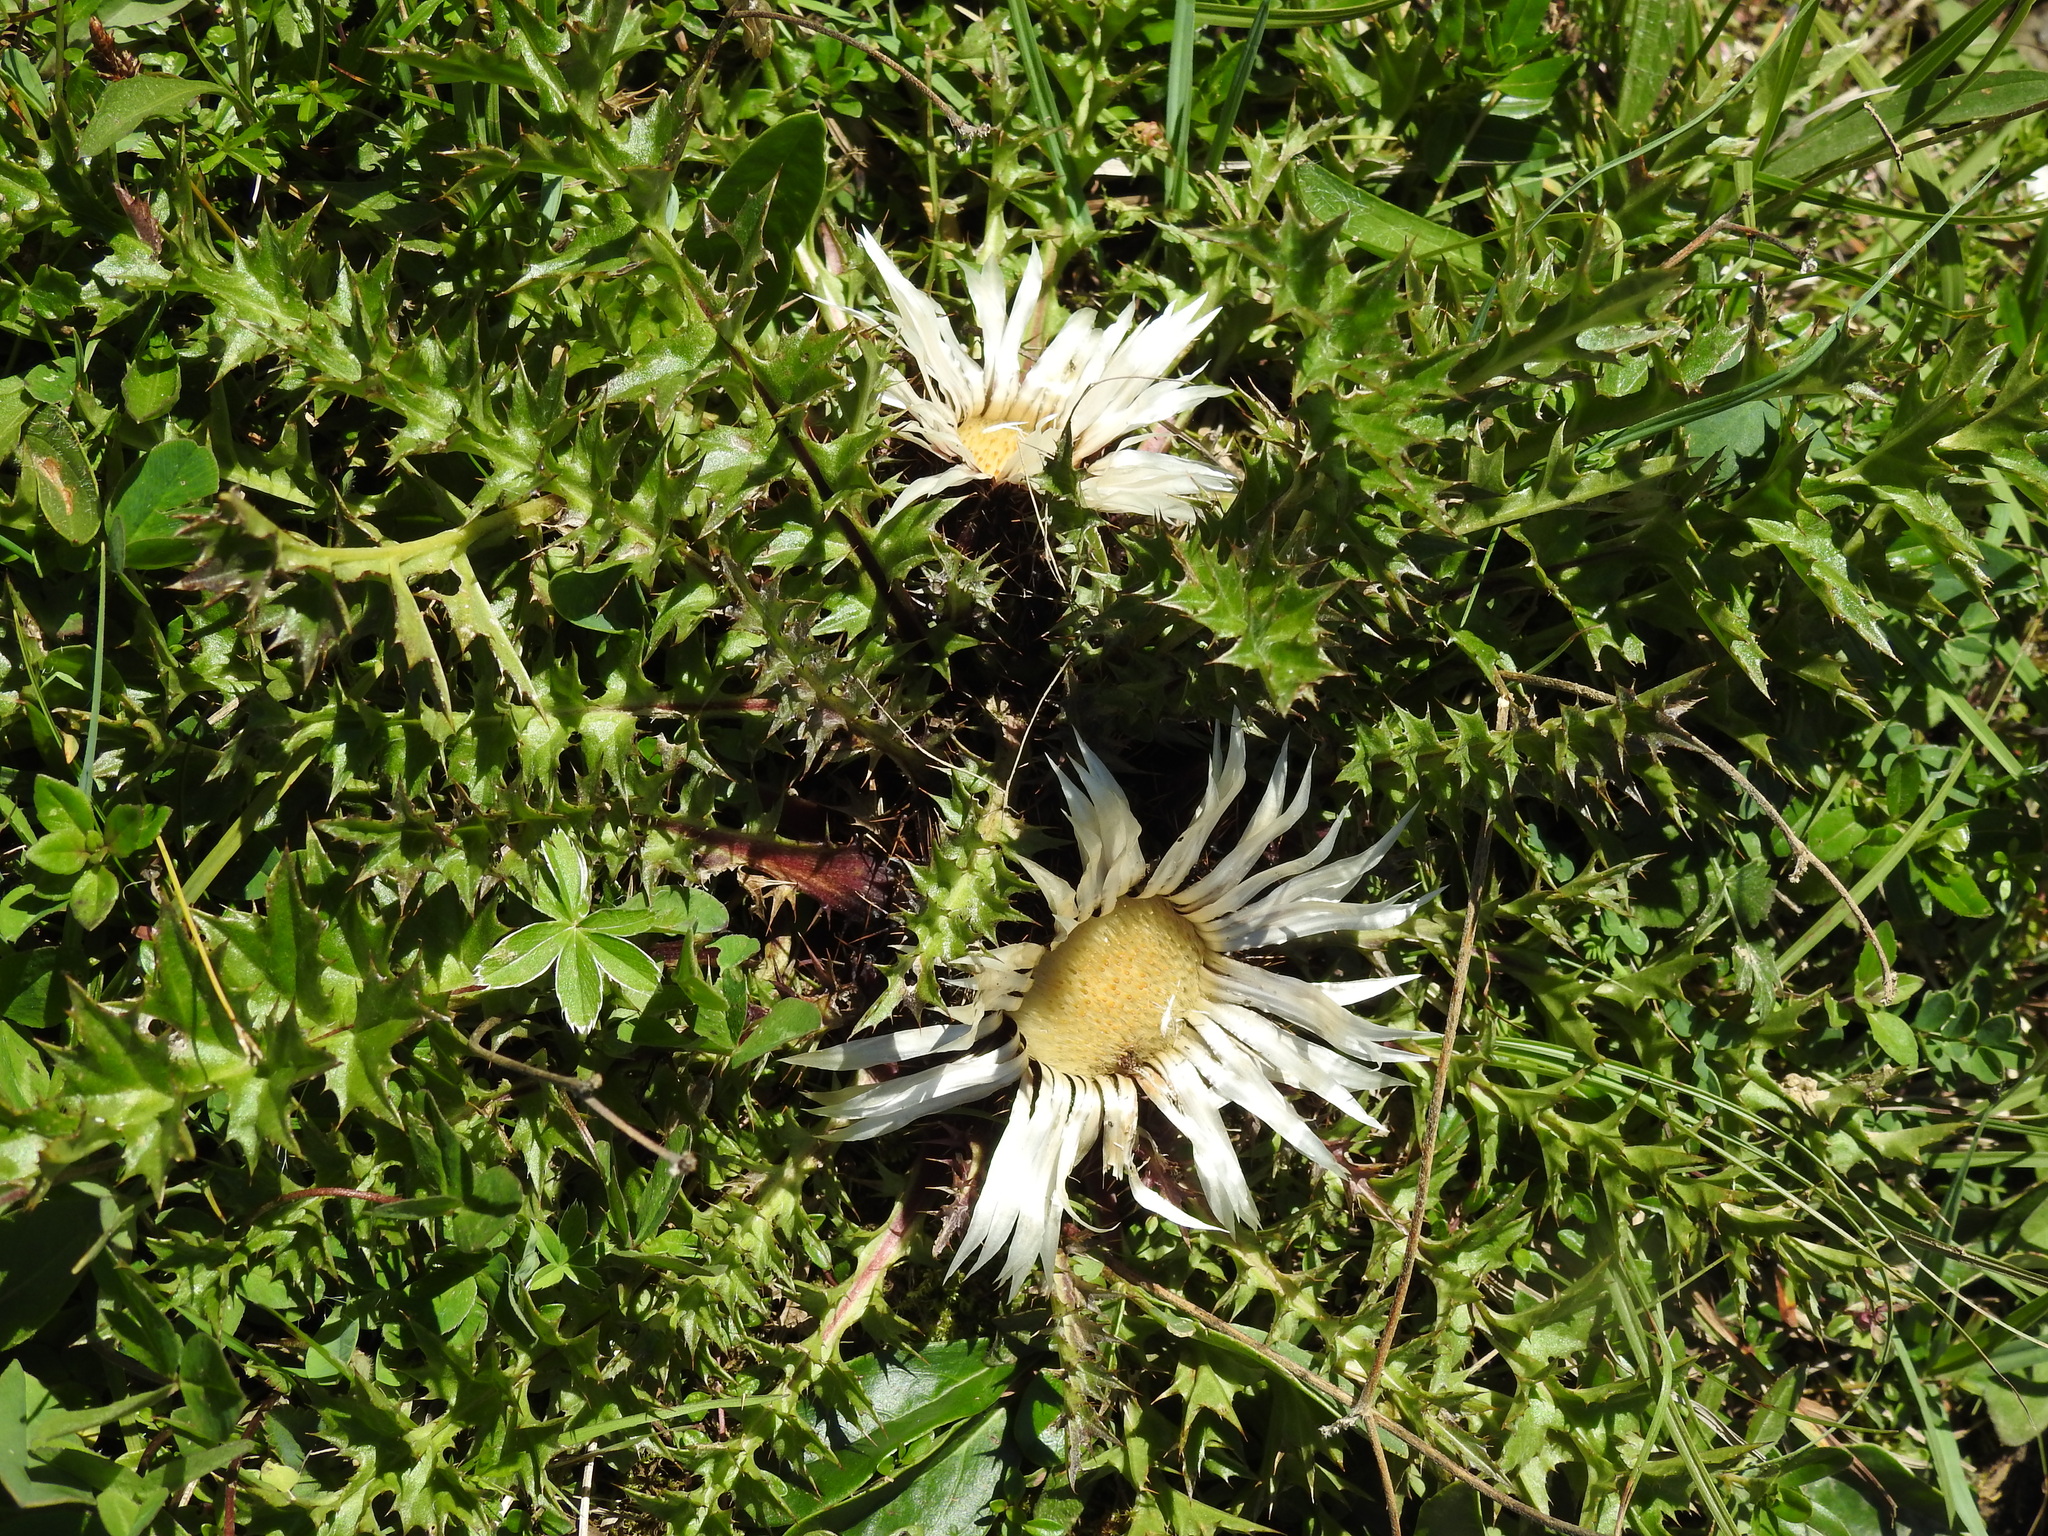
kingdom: Plantae
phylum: Tracheophyta
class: Magnoliopsida
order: Asterales
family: Asteraceae
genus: Carlina
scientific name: Carlina acaulis
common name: Stemless carline thistle
